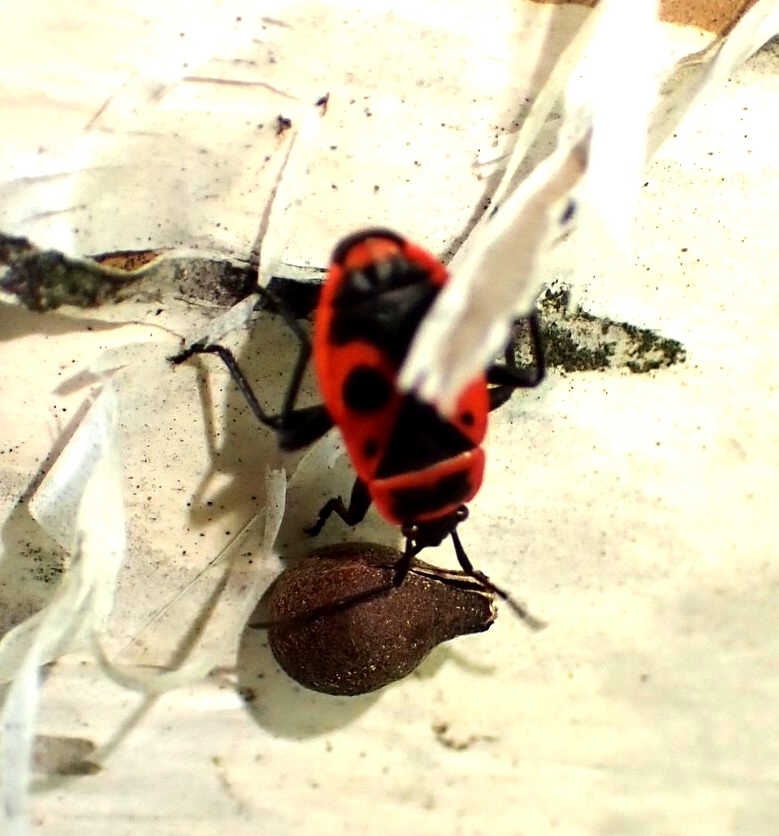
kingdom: Animalia
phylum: Arthropoda
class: Insecta
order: Hemiptera
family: Pyrrhocoridae
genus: Pyrrhocoris
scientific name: Pyrrhocoris apterus
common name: Firebug
